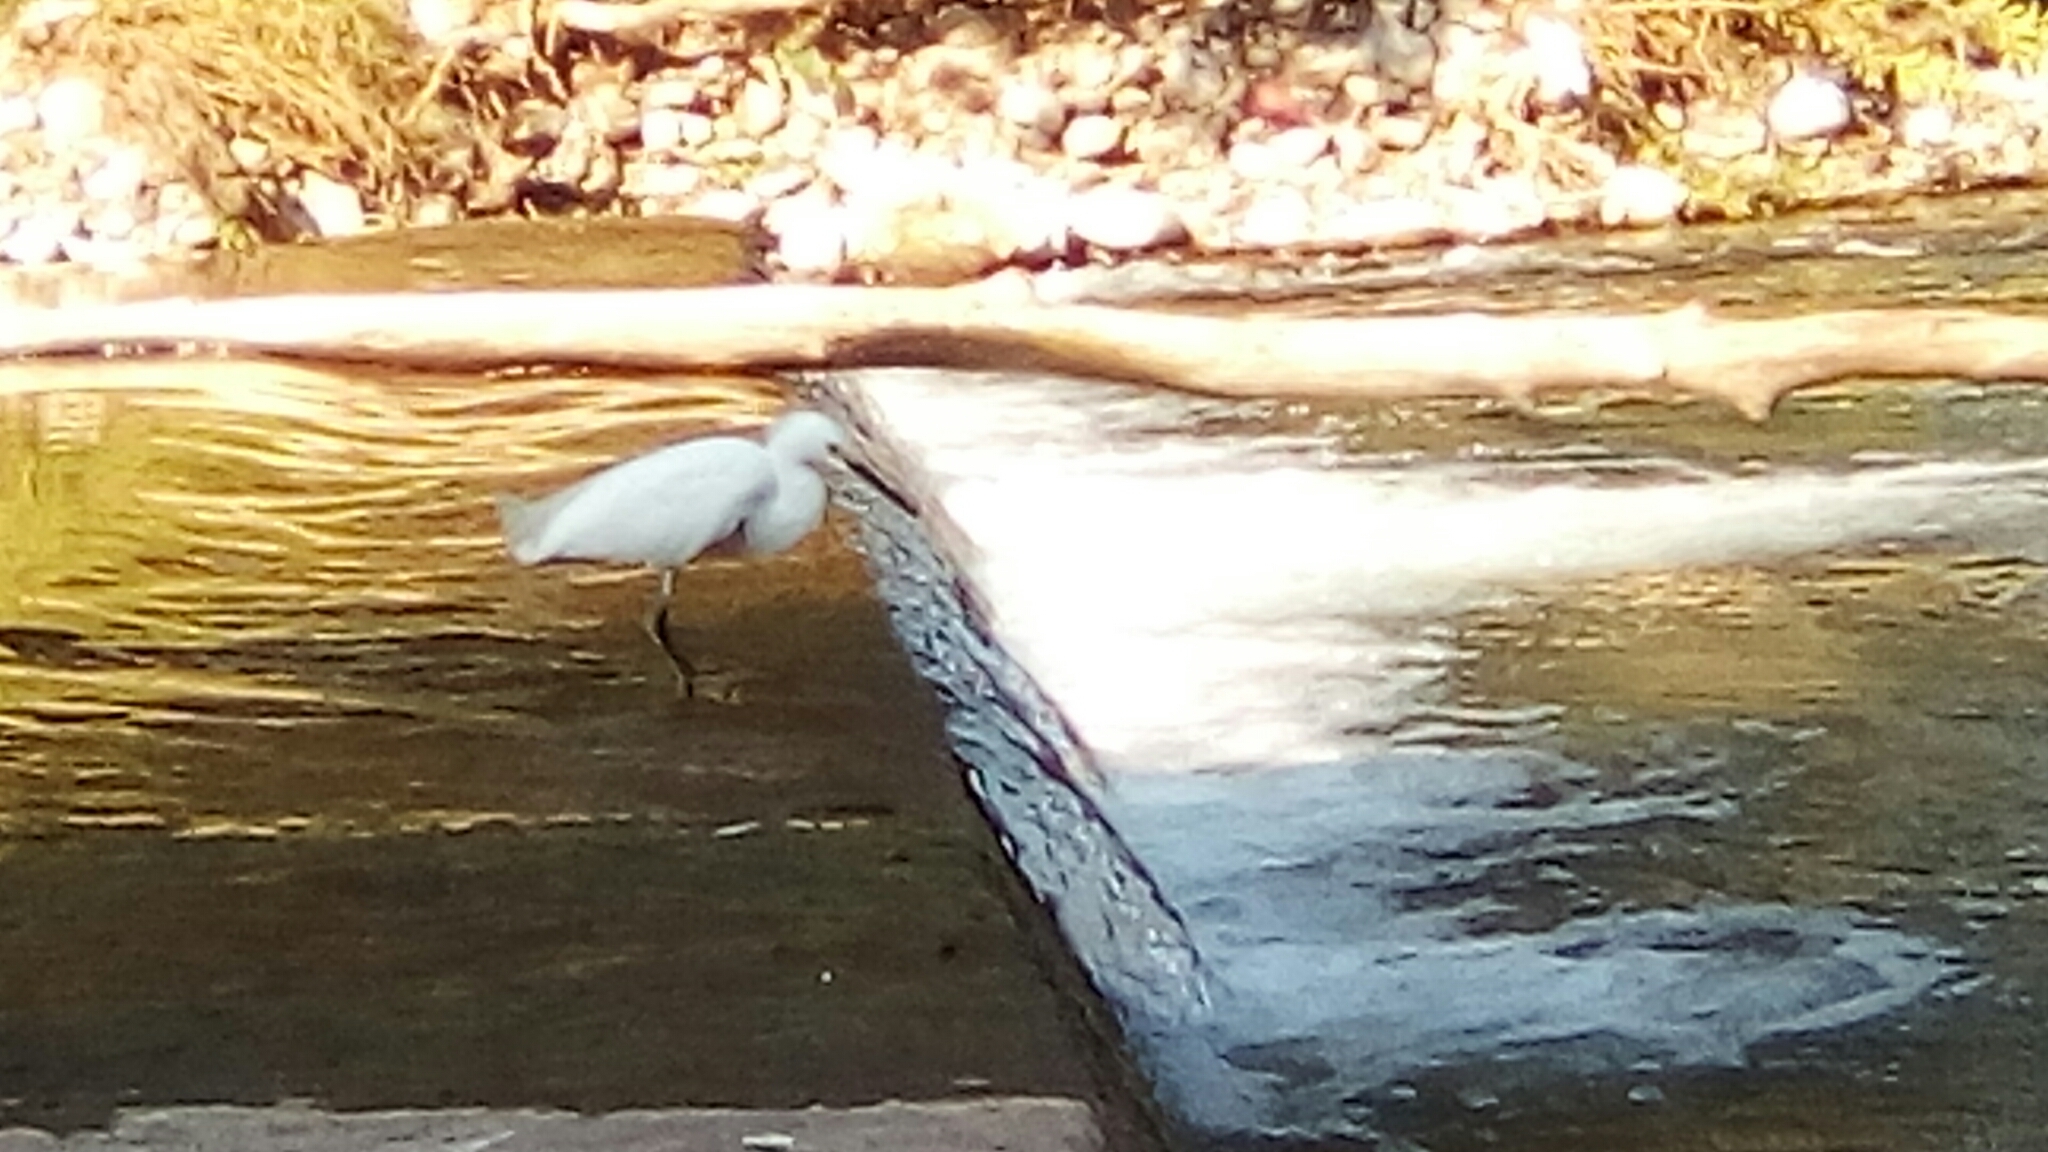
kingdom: Animalia
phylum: Chordata
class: Aves
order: Pelecaniformes
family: Ardeidae
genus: Egretta
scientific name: Egretta thula
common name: Snowy egret
